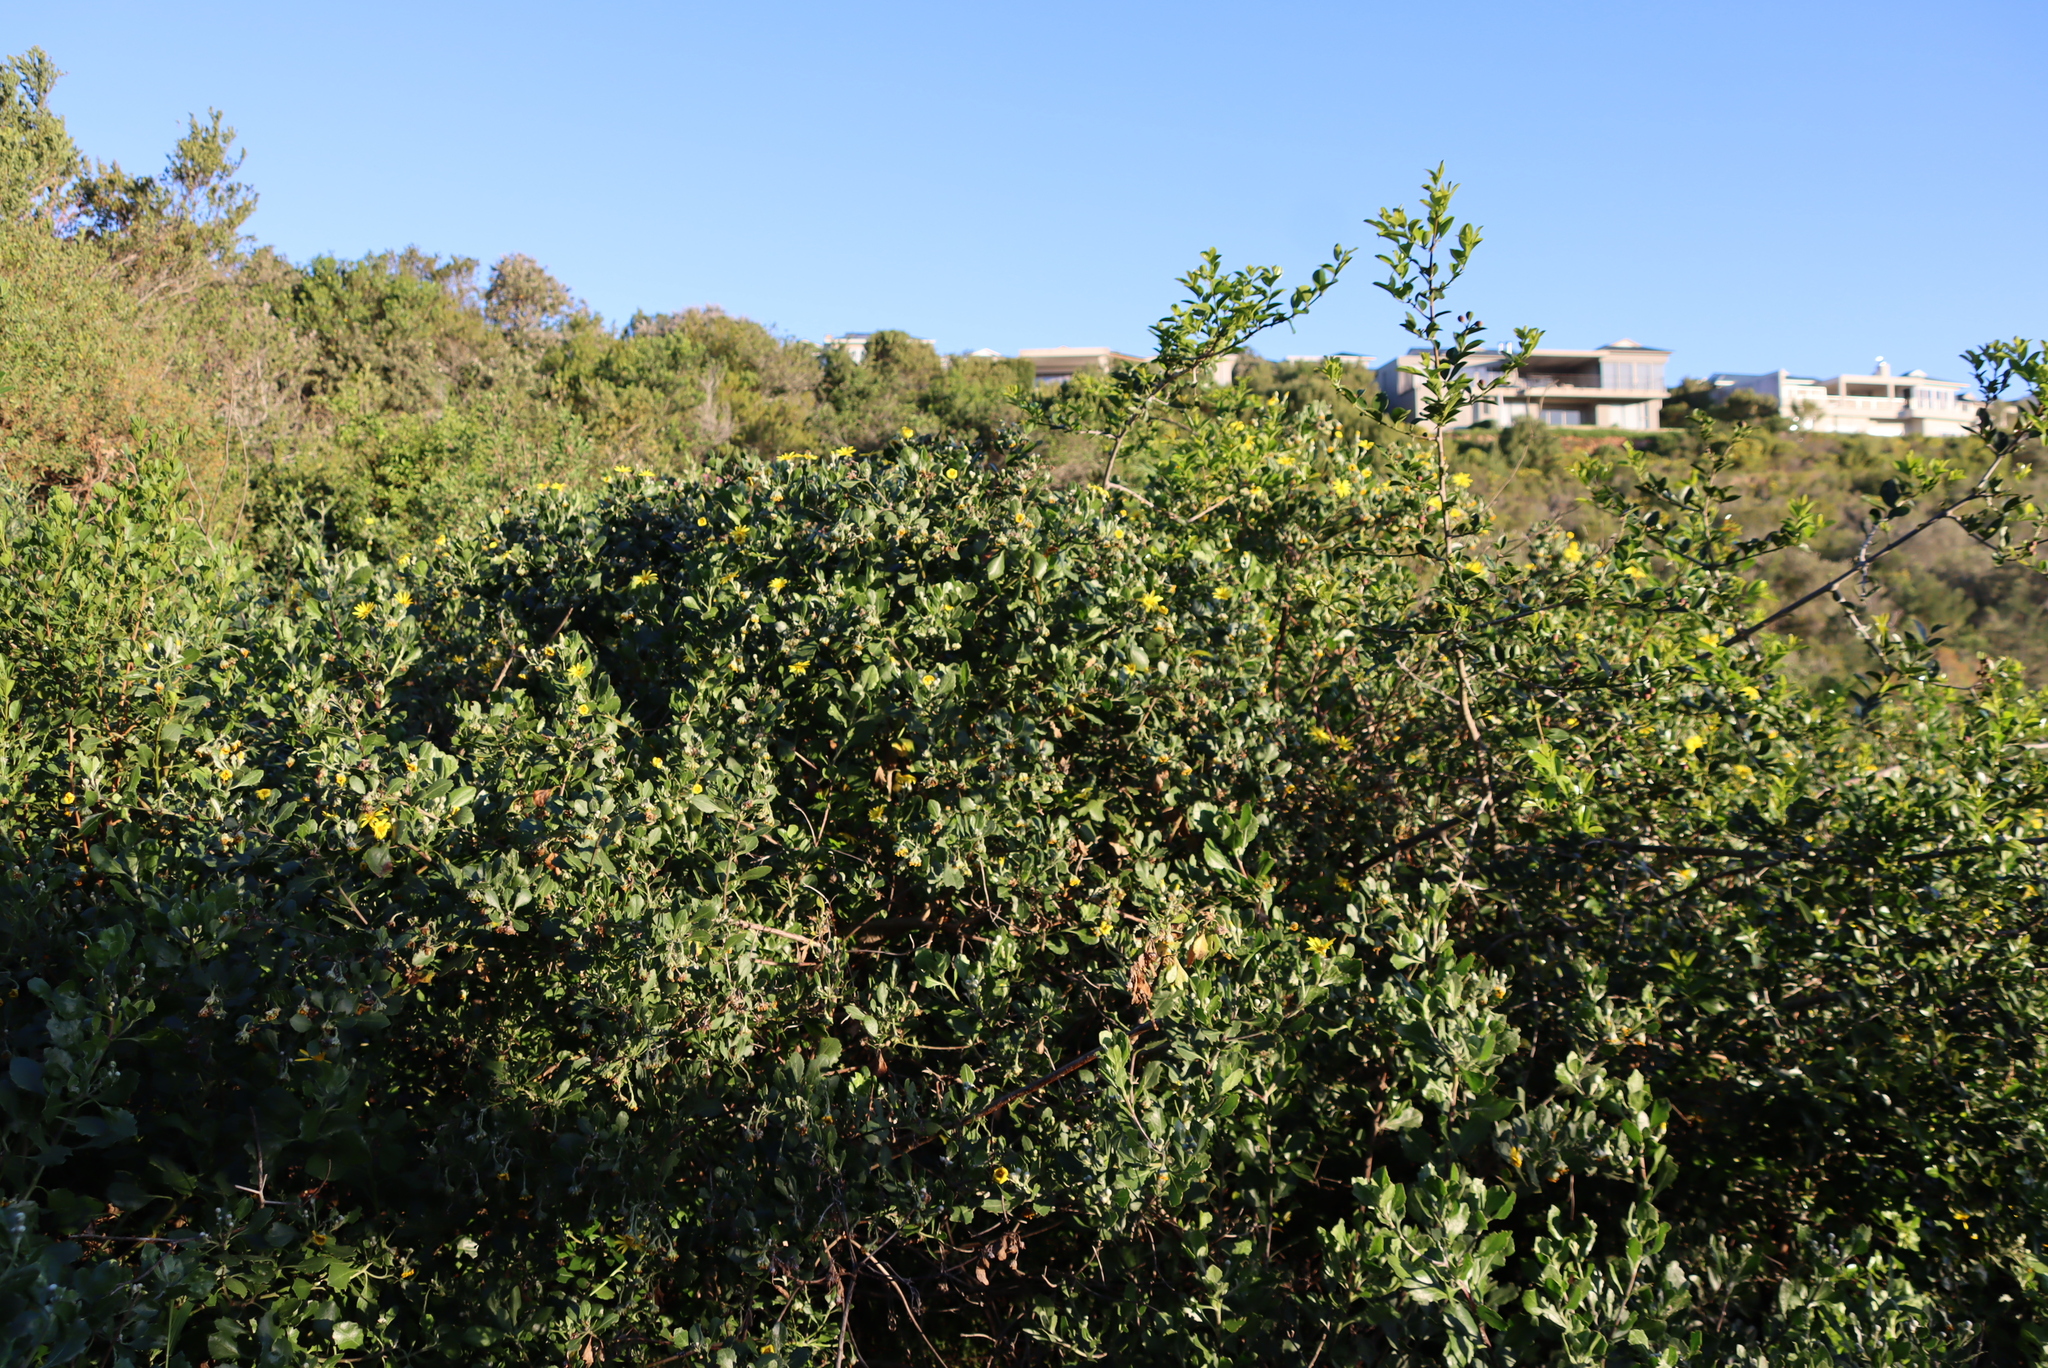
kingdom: Plantae
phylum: Tracheophyta
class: Magnoliopsida
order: Asterales
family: Asteraceae
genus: Osteospermum
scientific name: Osteospermum moniliferum
